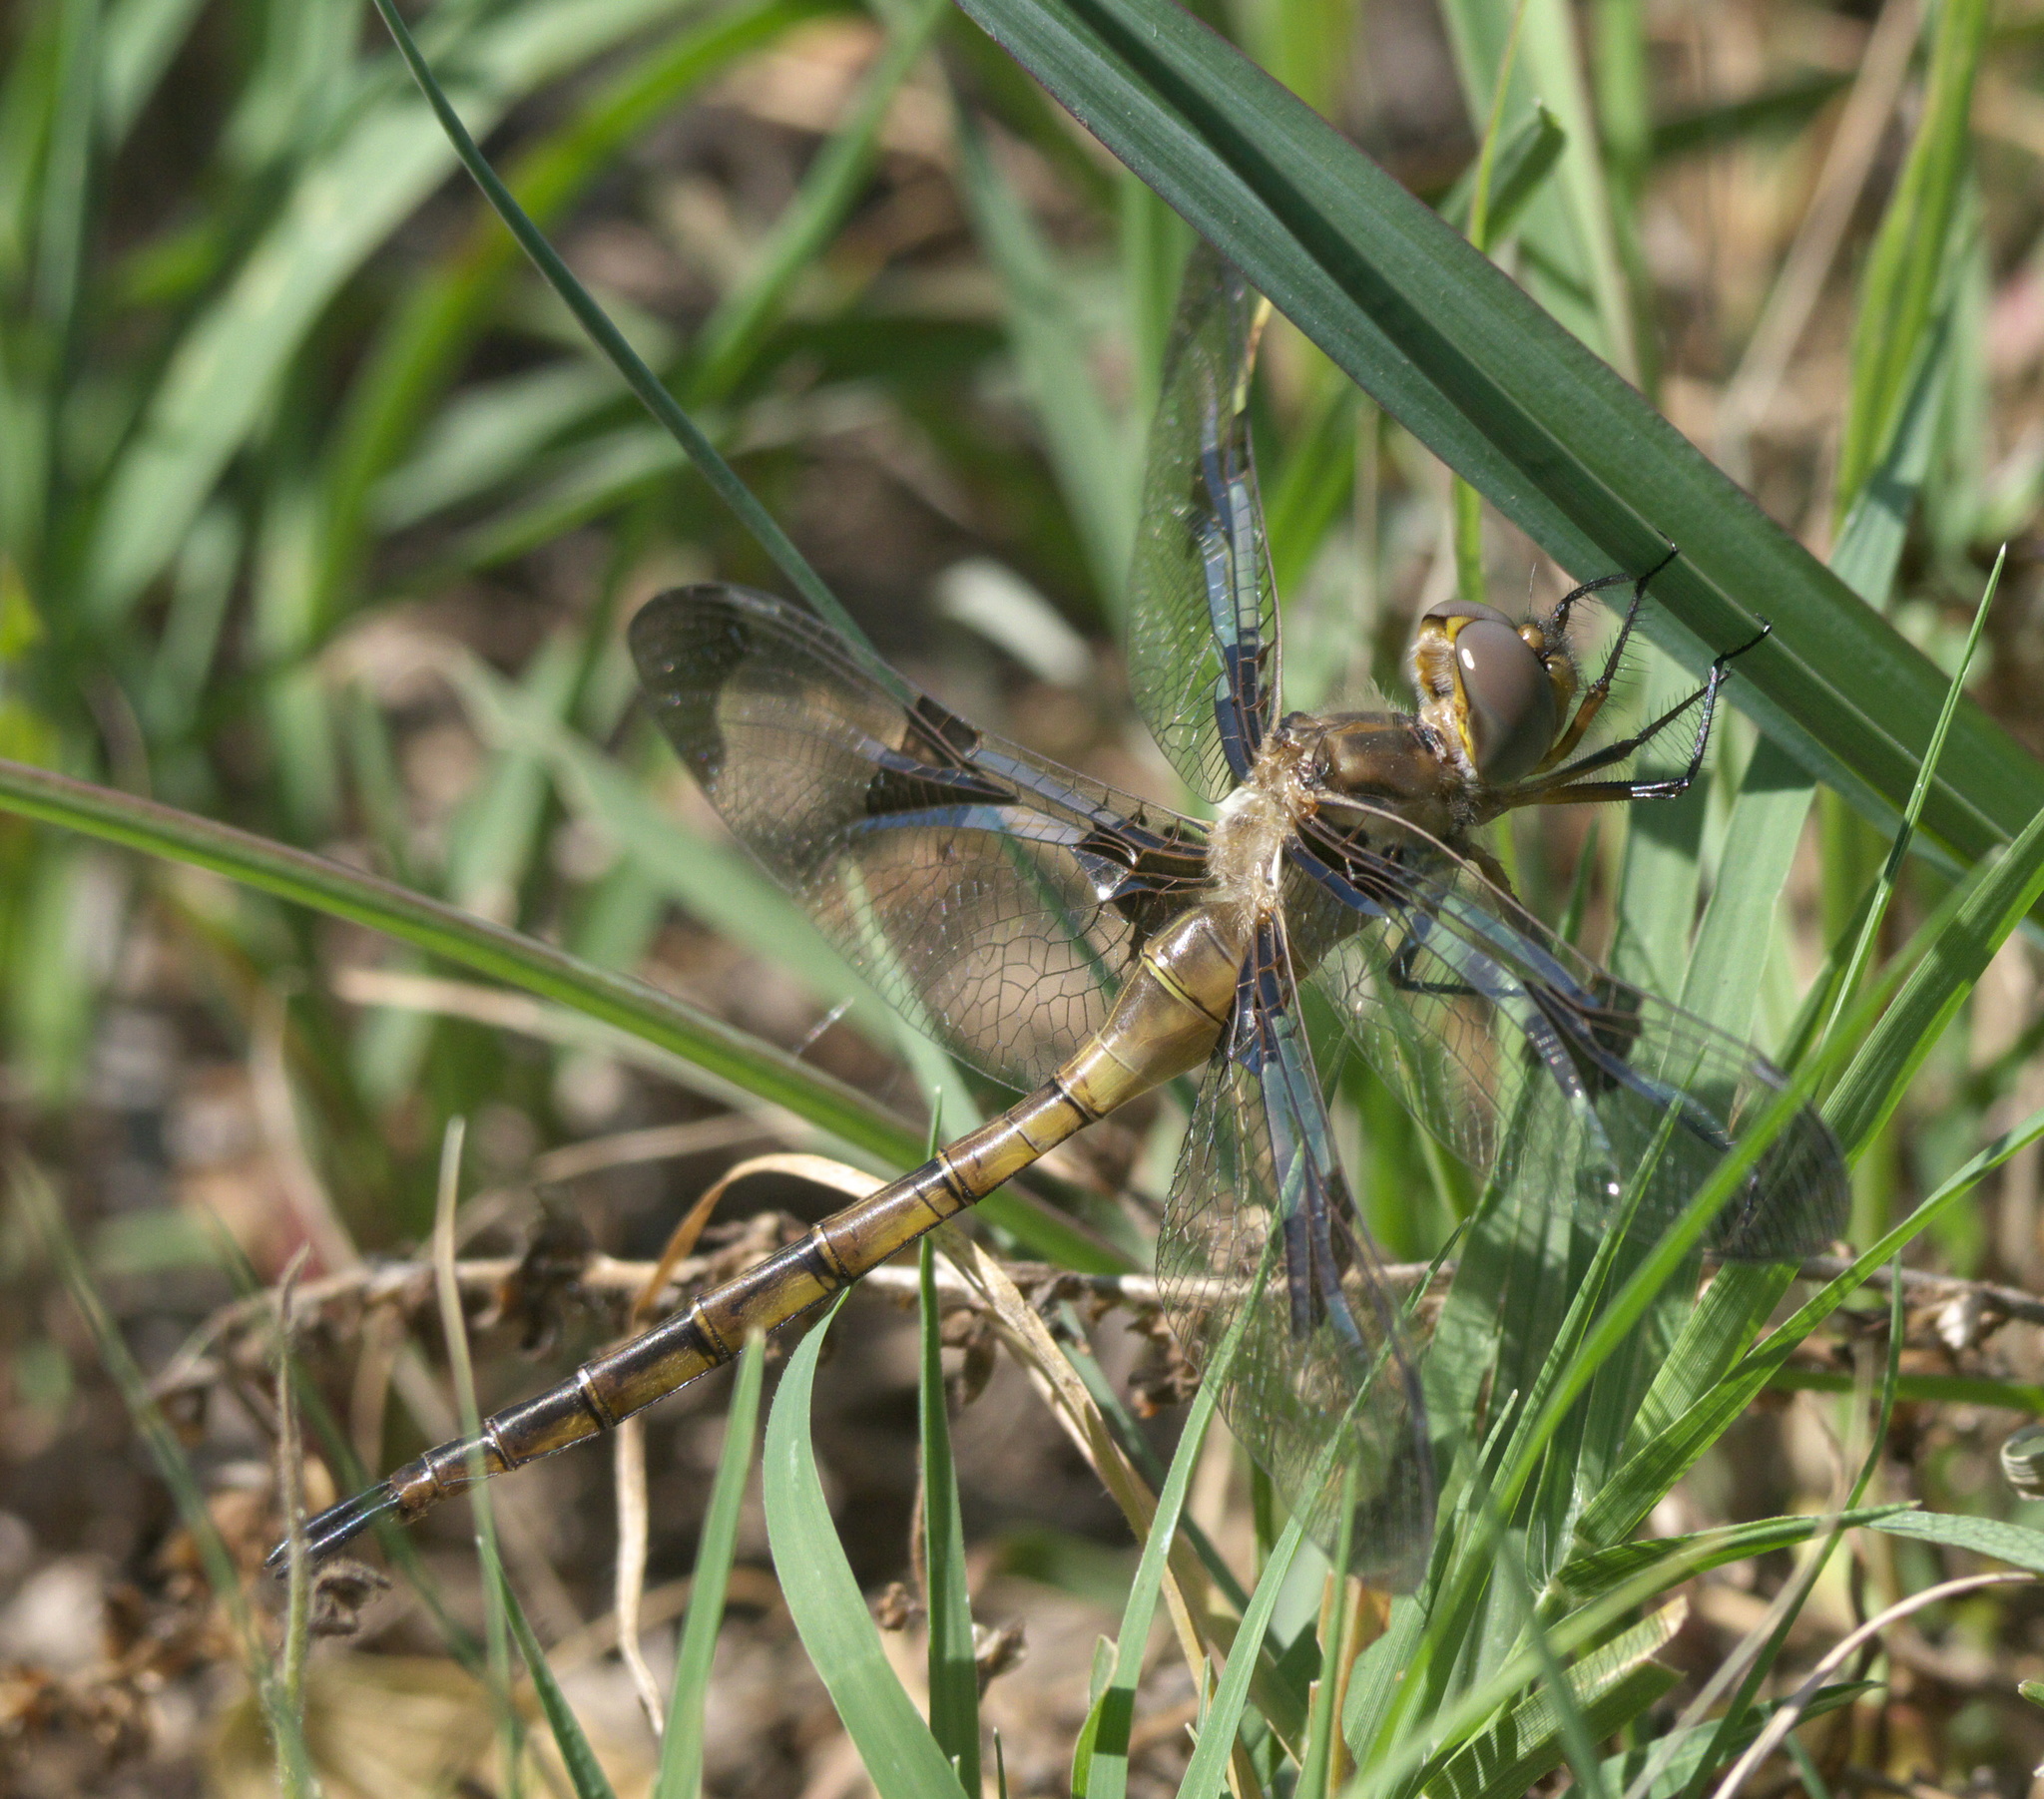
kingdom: Animalia
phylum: Arthropoda
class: Insecta
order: Odonata
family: Corduliidae
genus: Epitheca
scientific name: Epitheca princeps
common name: Prince baskettail
